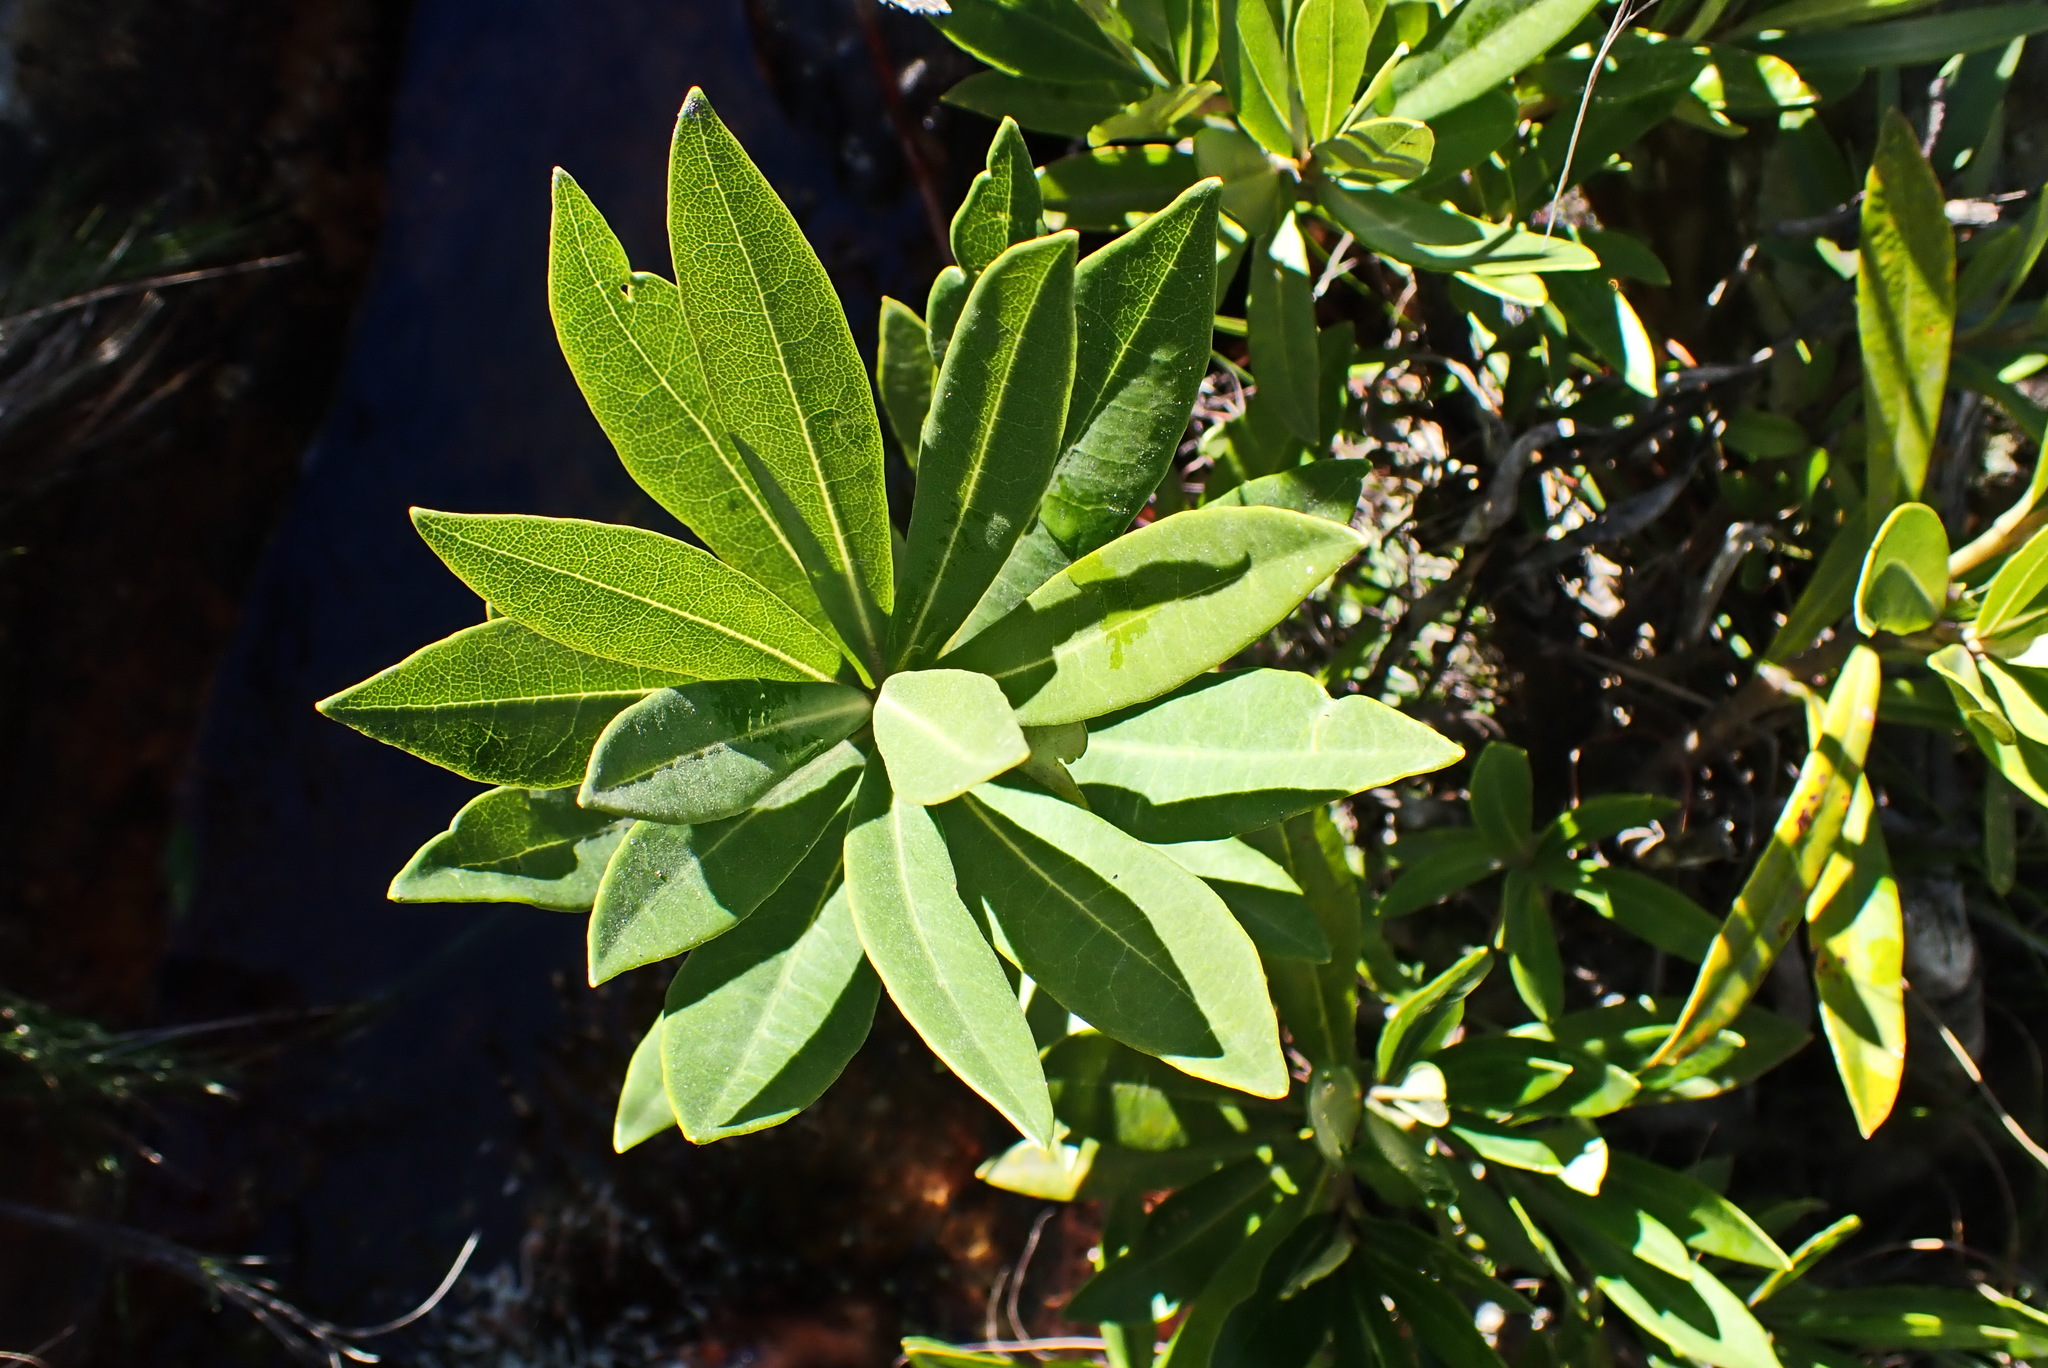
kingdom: Plantae
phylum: Tracheophyta
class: Magnoliopsida
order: Asterales
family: Asteraceae
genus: Brachylaena
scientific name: Brachylaena neriifolia
